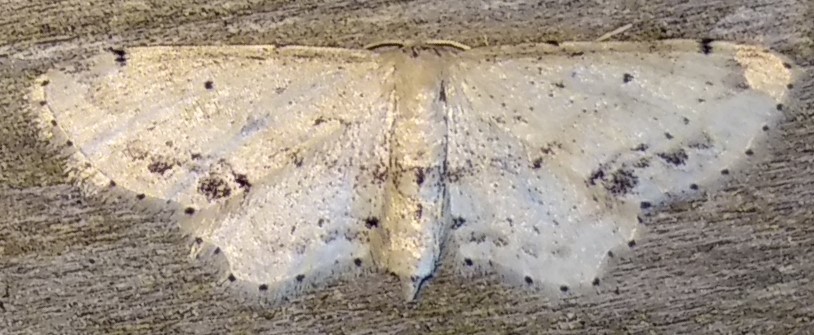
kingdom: Animalia
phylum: Arthropoda
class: Insecta
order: Lepidoptera
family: Geometridae
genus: Idaea
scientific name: Idaea dimidiata
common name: Single-dotted wave
